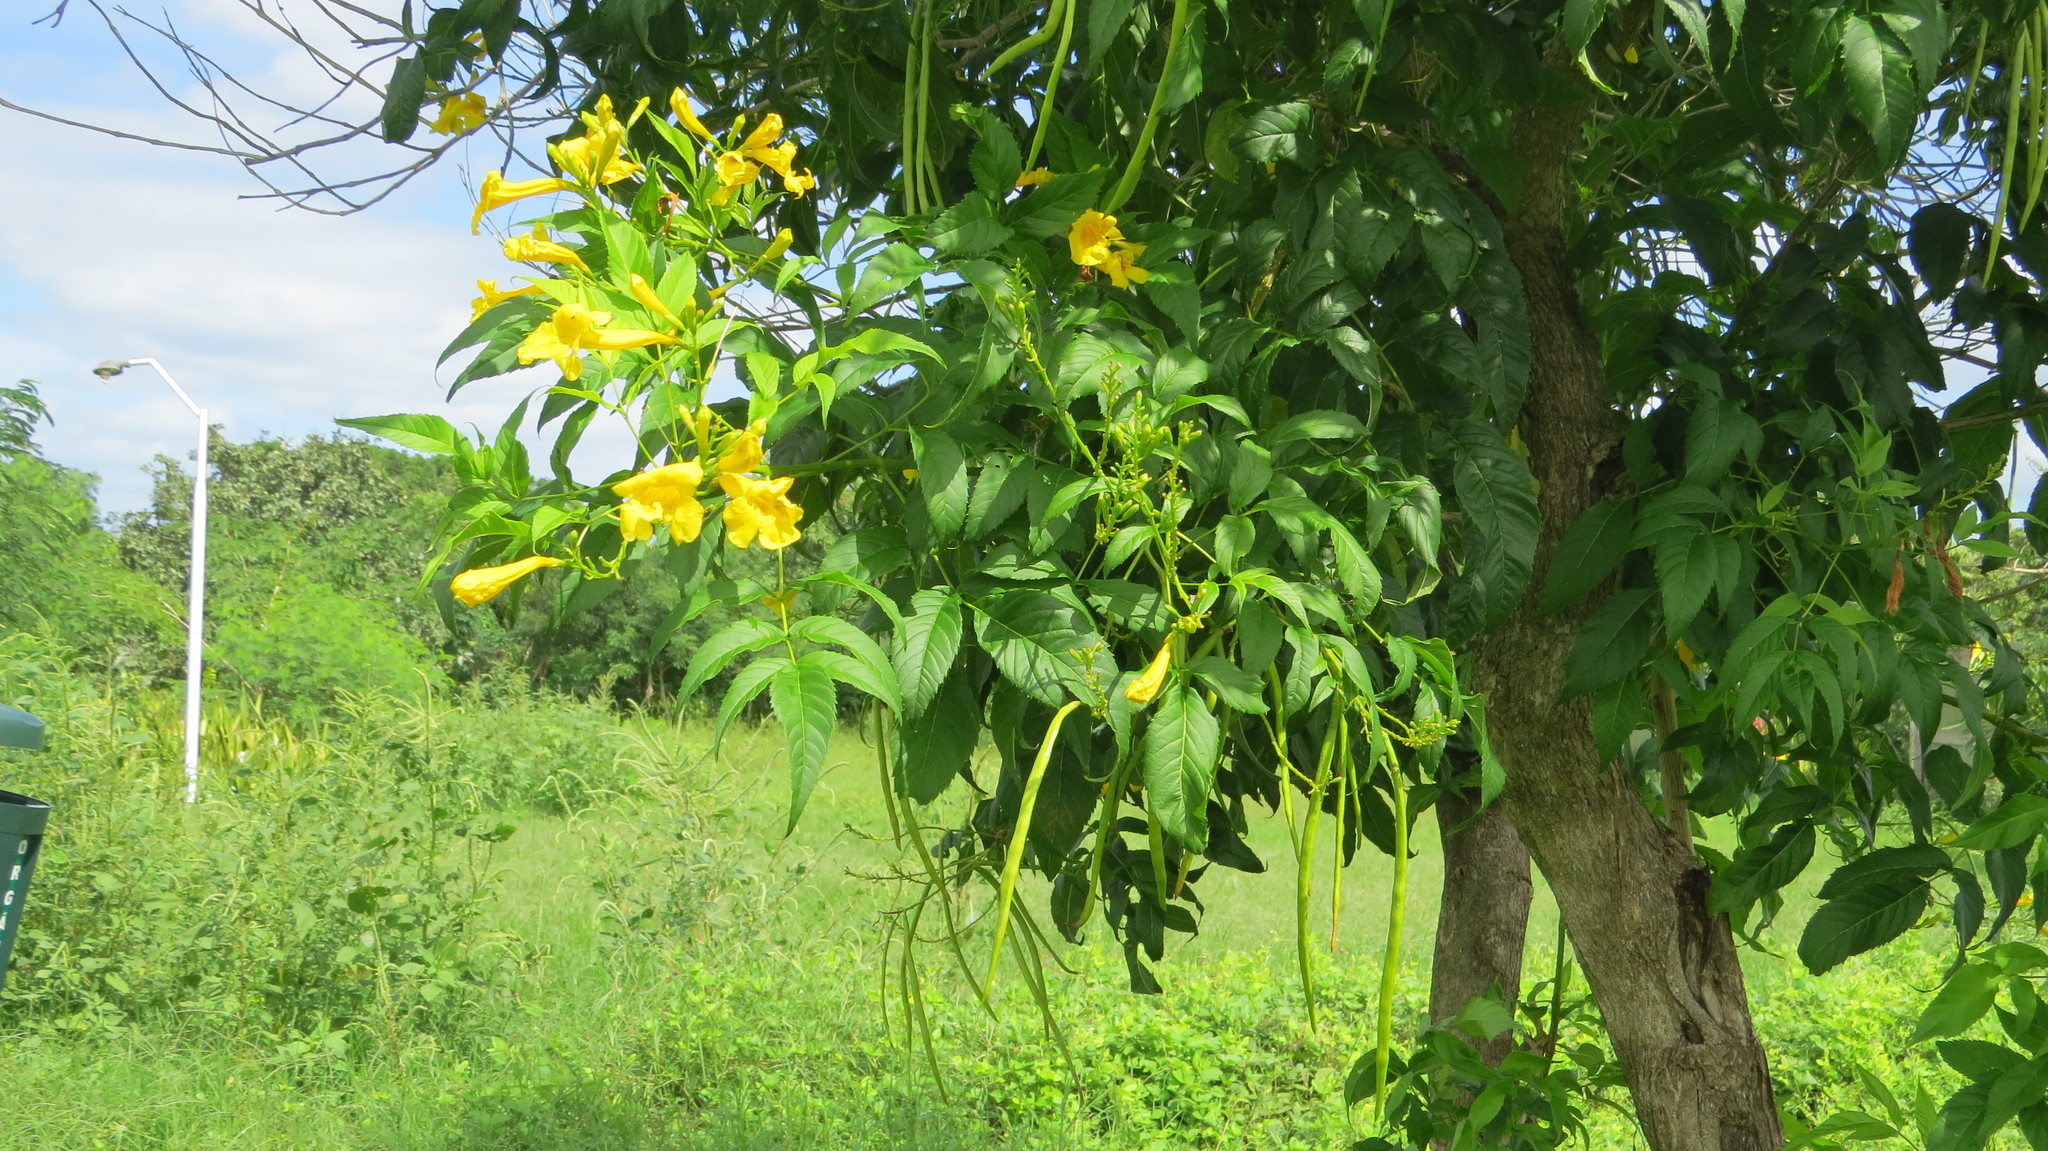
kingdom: Plantae
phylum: Tracheophyta
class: Magnoliopsida
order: Lamiales
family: Bignoniaceae
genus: Tecoma
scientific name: Tecoma stans
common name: Yellow trumpetbush
